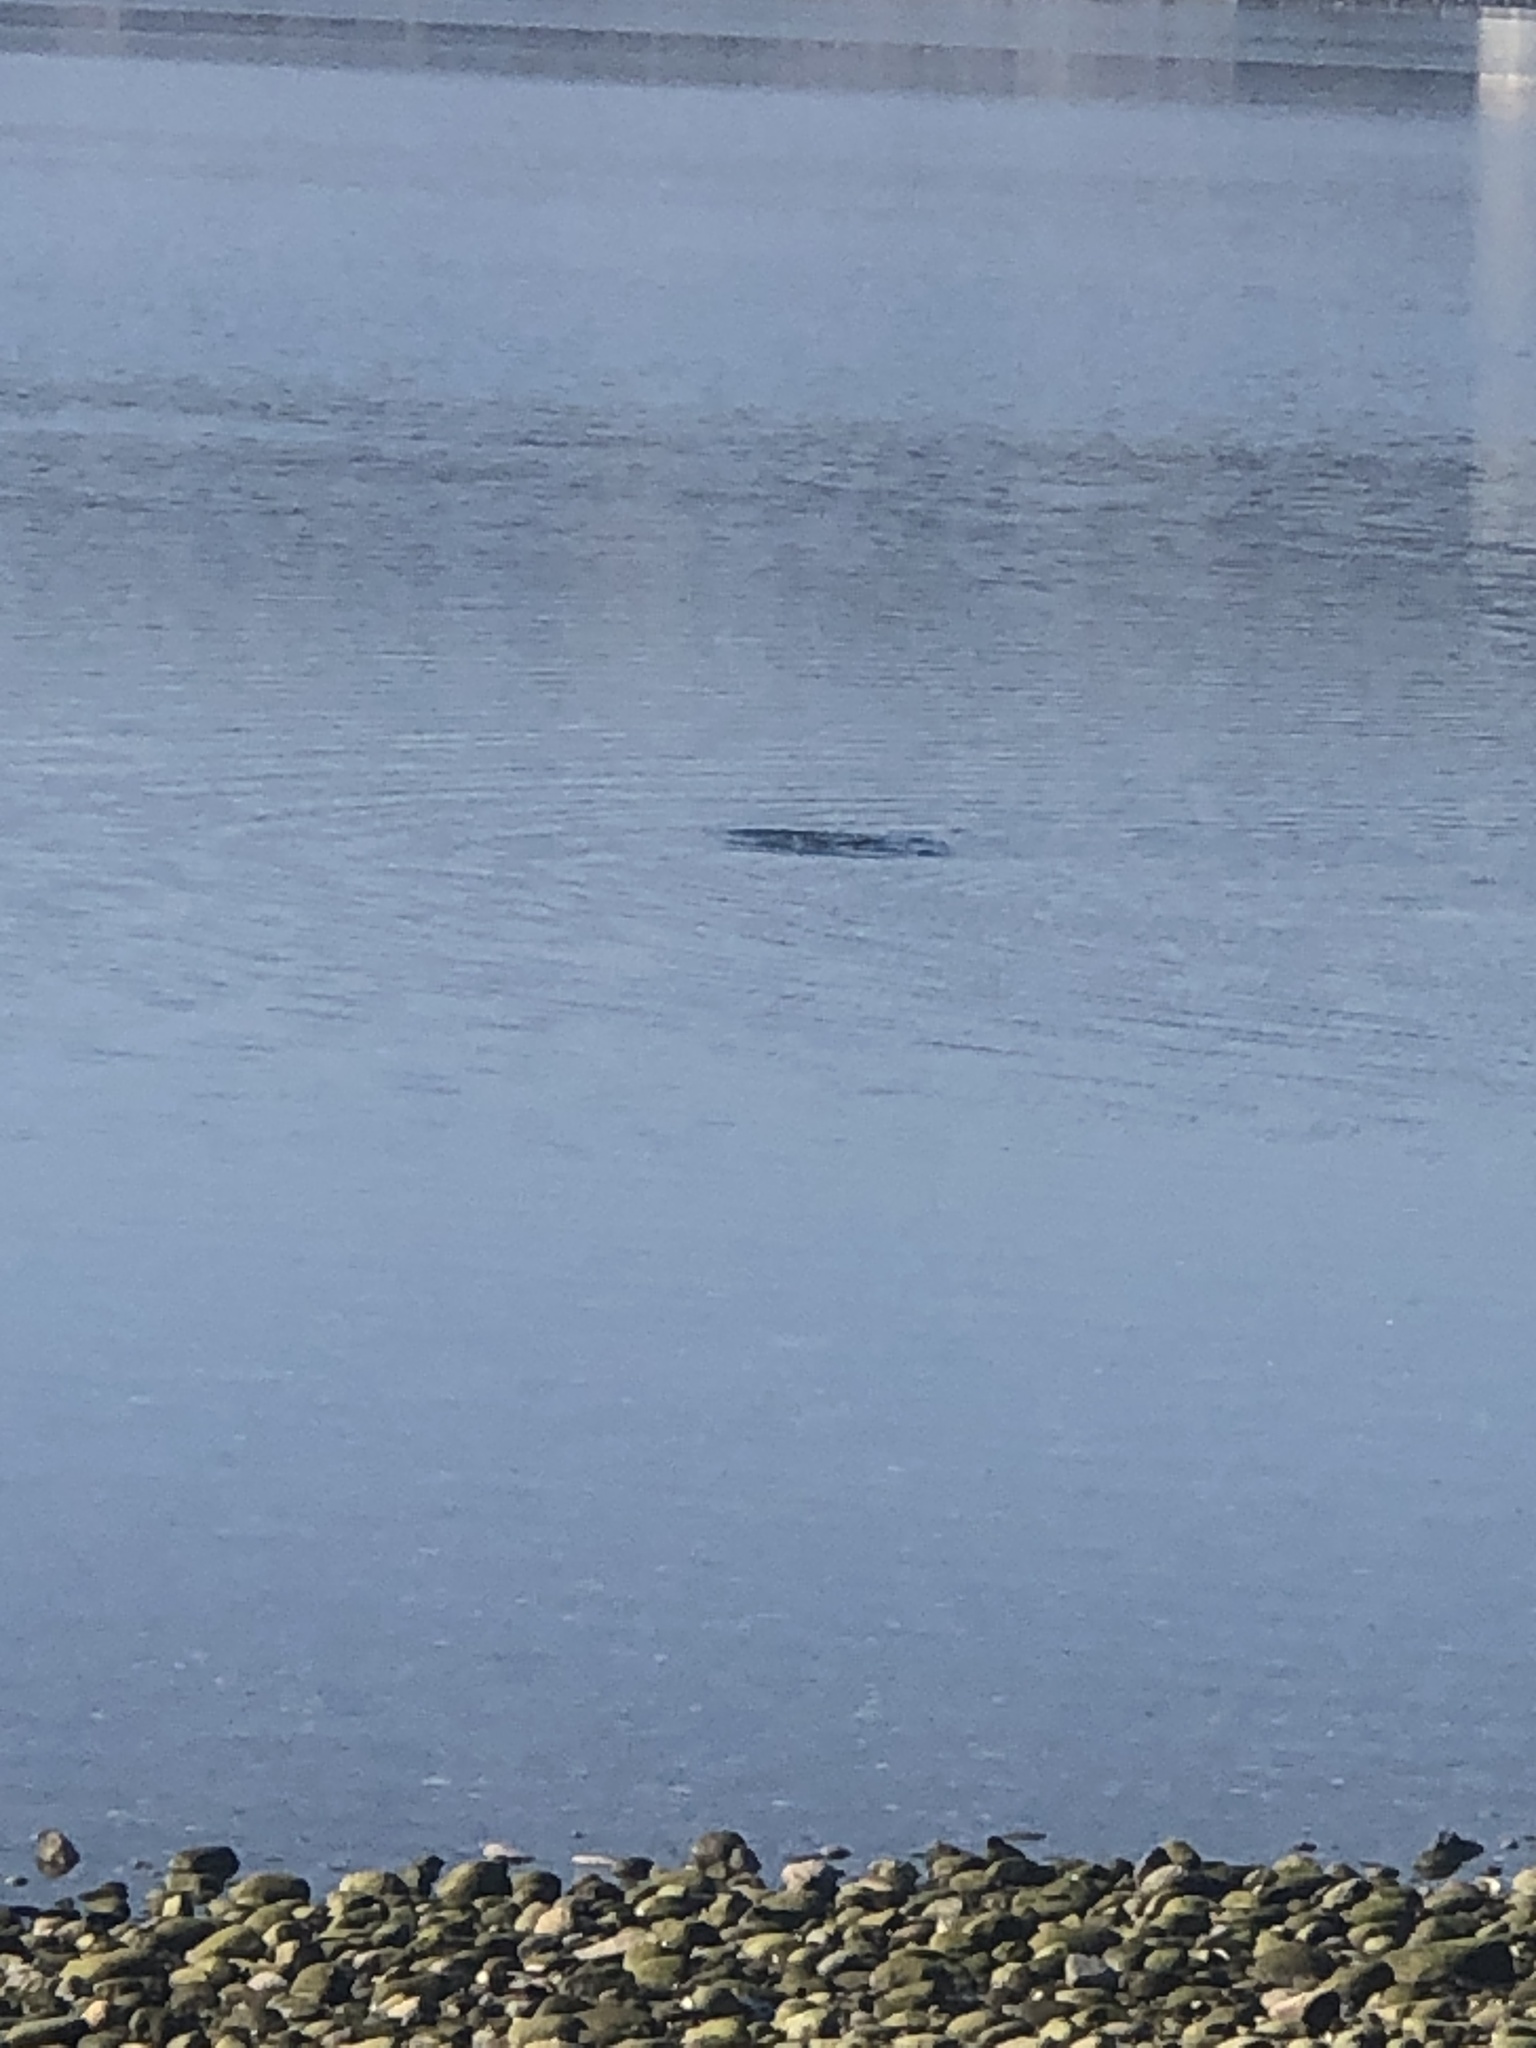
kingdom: Animalia
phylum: Chordata
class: Aves
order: Anseriformes
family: Anatidae
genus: Bucephala
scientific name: Bucephala islandica
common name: Barrow's goldeneye
